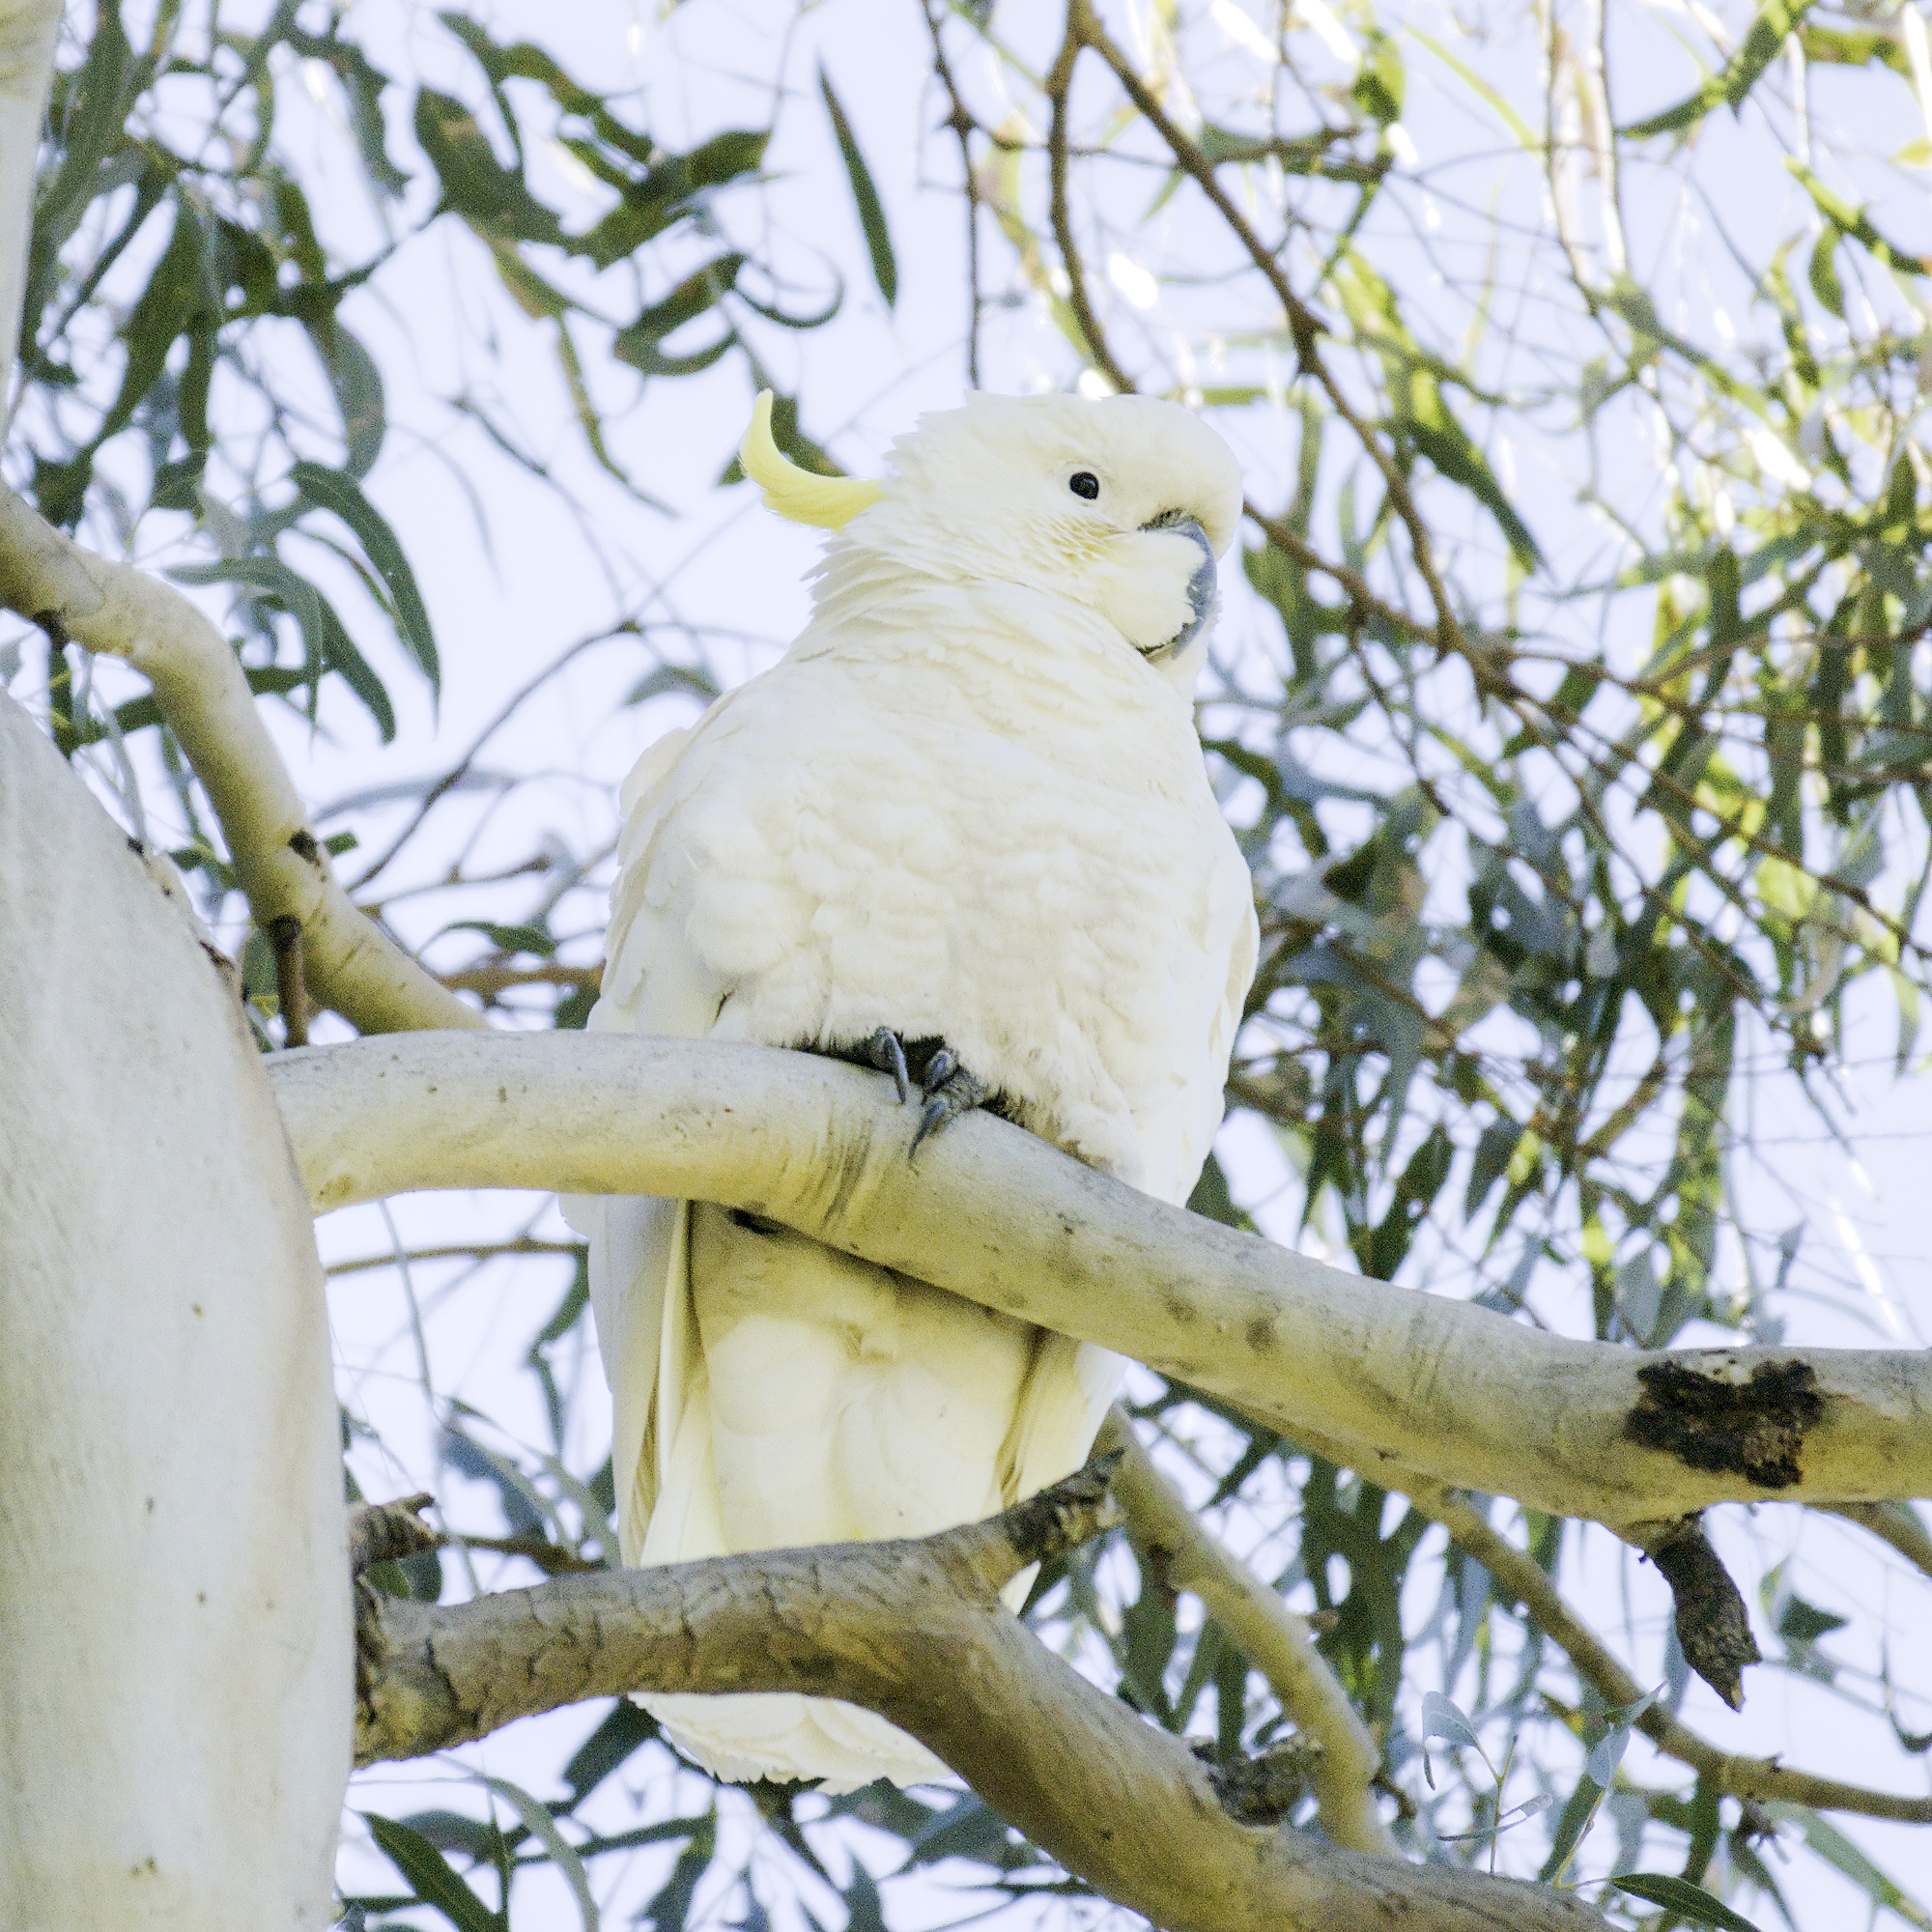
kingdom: Animalia
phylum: Chordata
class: Aves
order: Psittaciformes
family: Psittacidae
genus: Cacatua
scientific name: Cacatua galerita
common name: Sulphur-crested cockatoo
